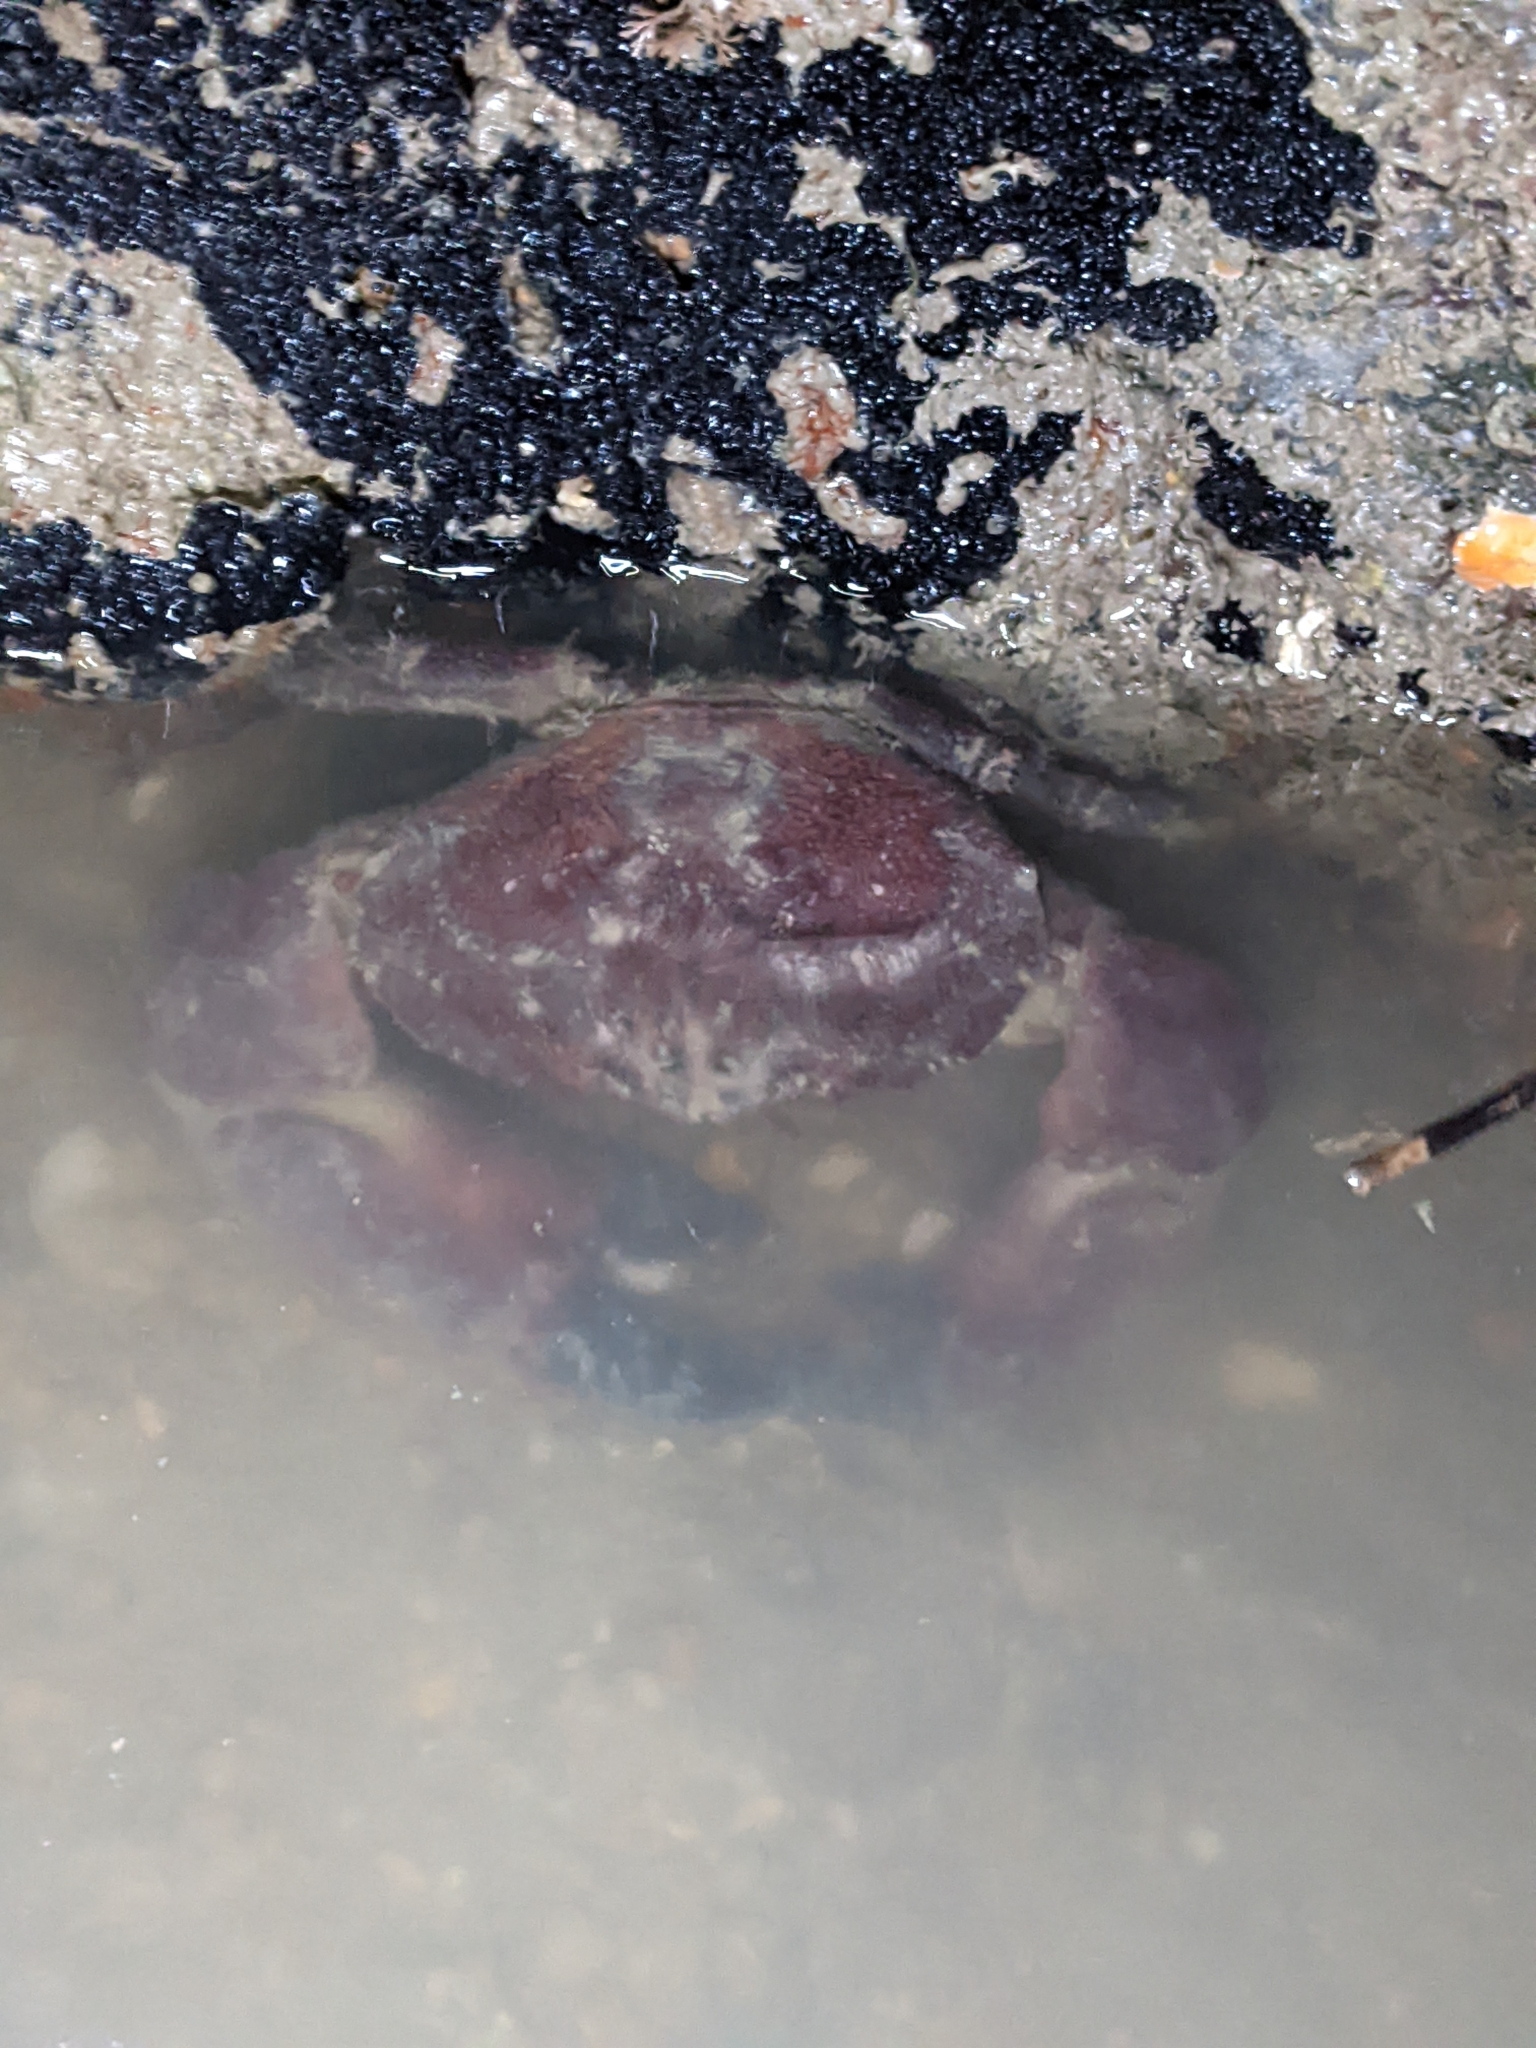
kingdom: Animalia
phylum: Arthropoda
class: Malacostraca
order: Decapoda
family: Menippidae
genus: Menippe
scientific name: Menippe rumphii
